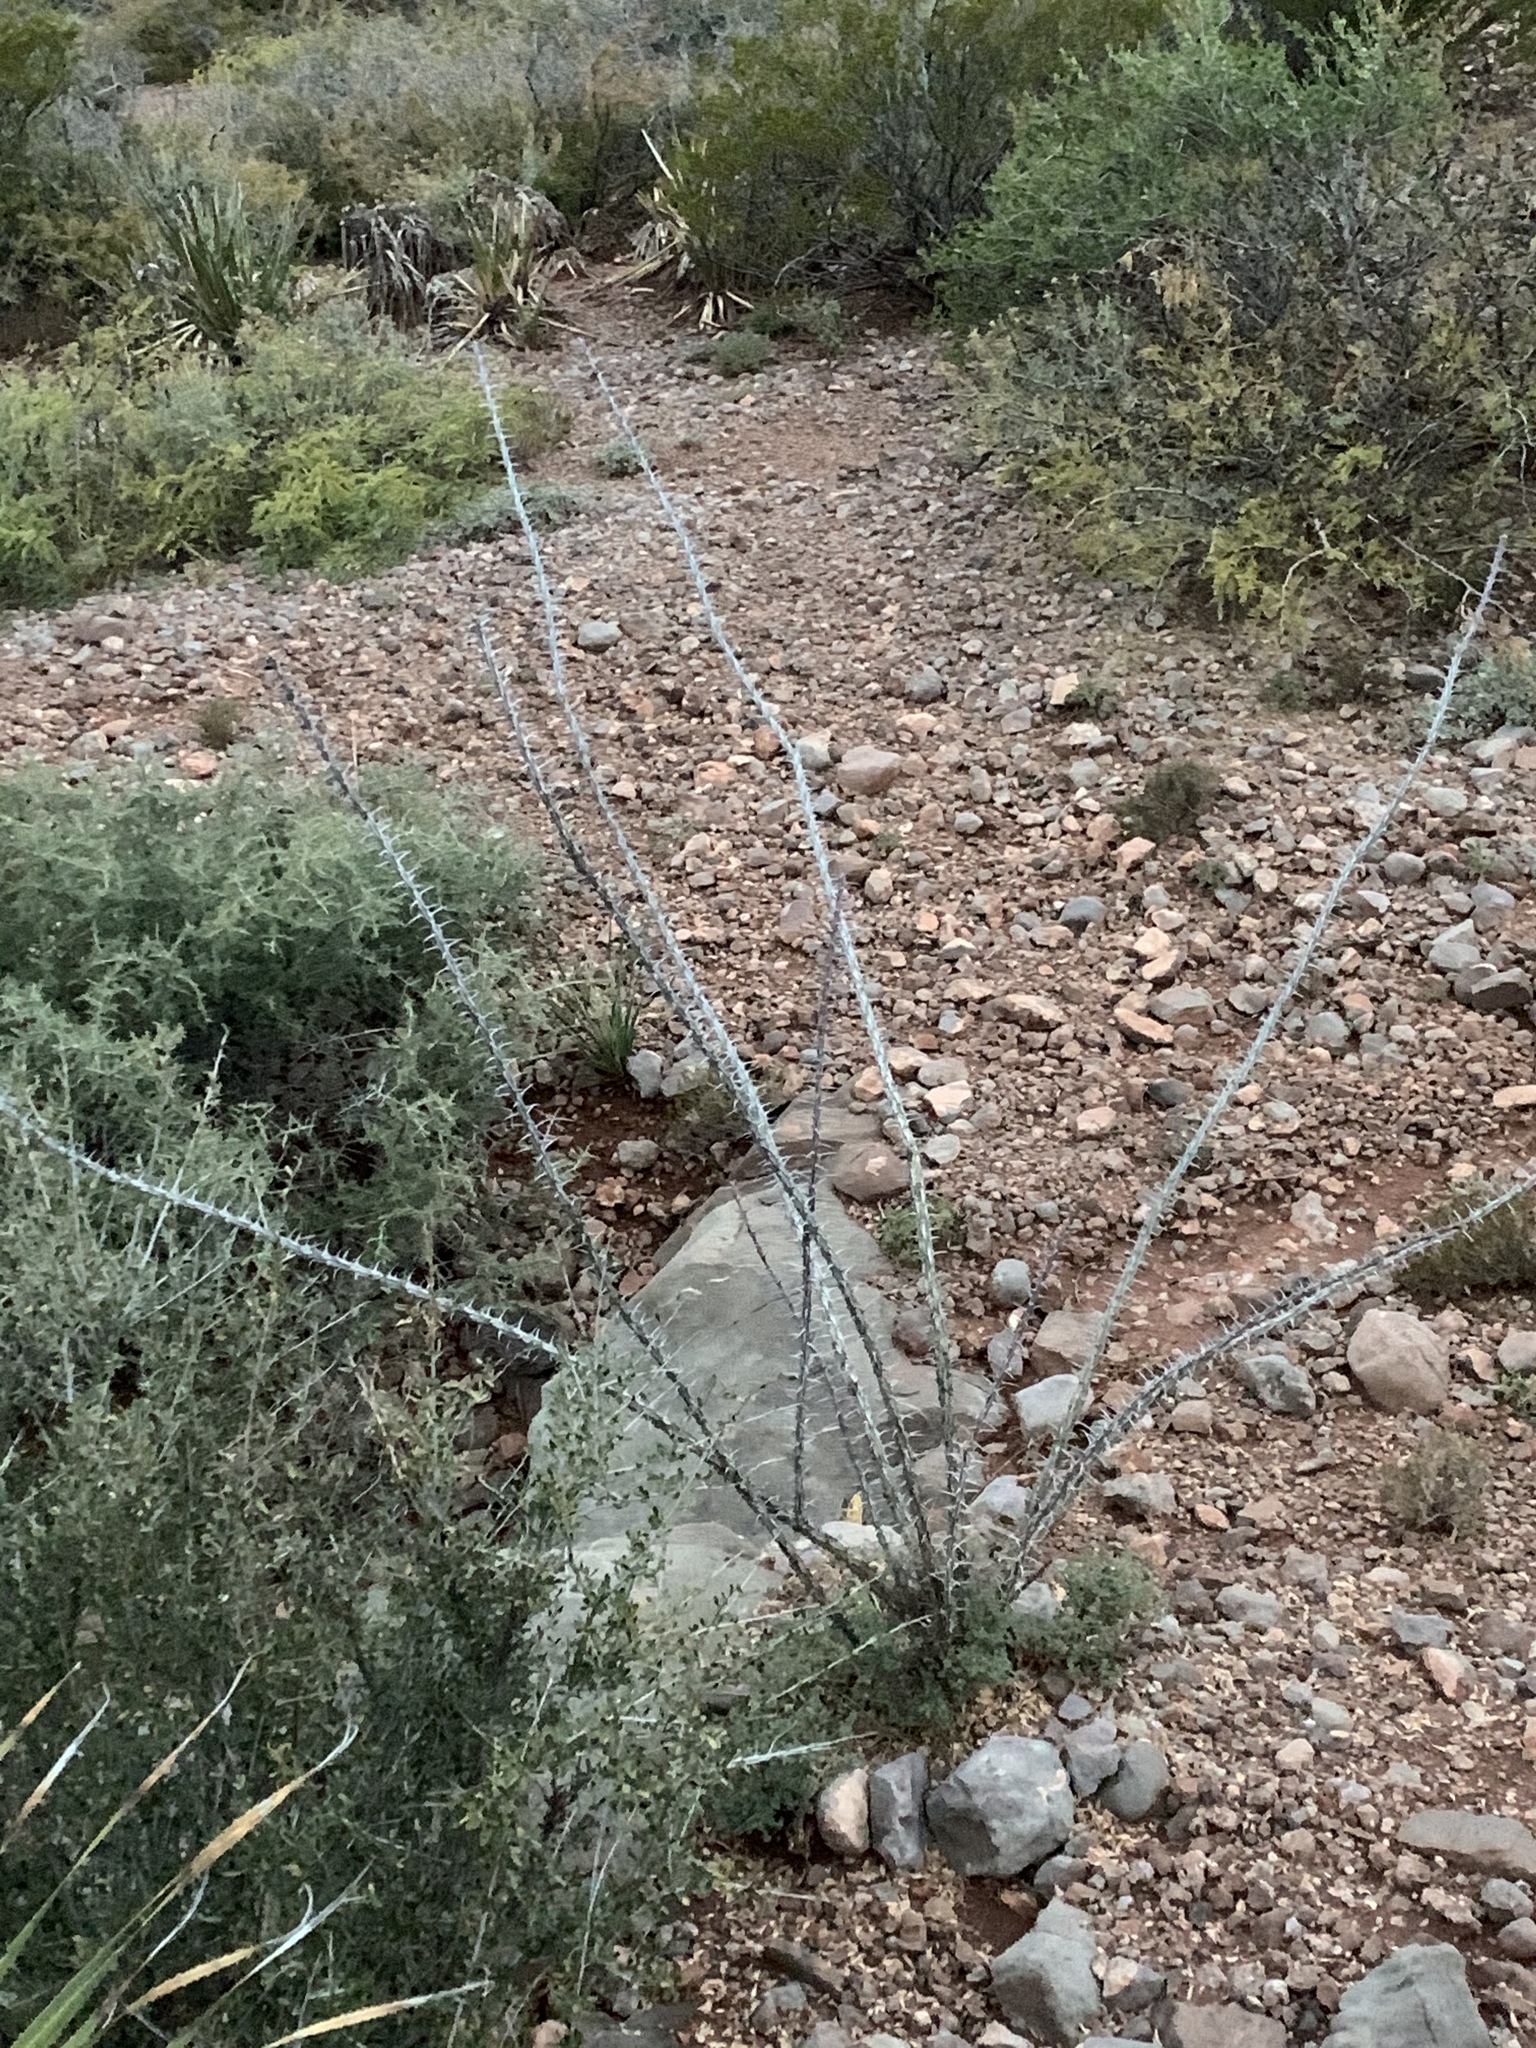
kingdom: Plantae
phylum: Tracheophyta
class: Magnoliopsida
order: Ericales
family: Fouquieriaceae
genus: Fouquieria
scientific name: Fouquieria splendens
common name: Vine-cactus
